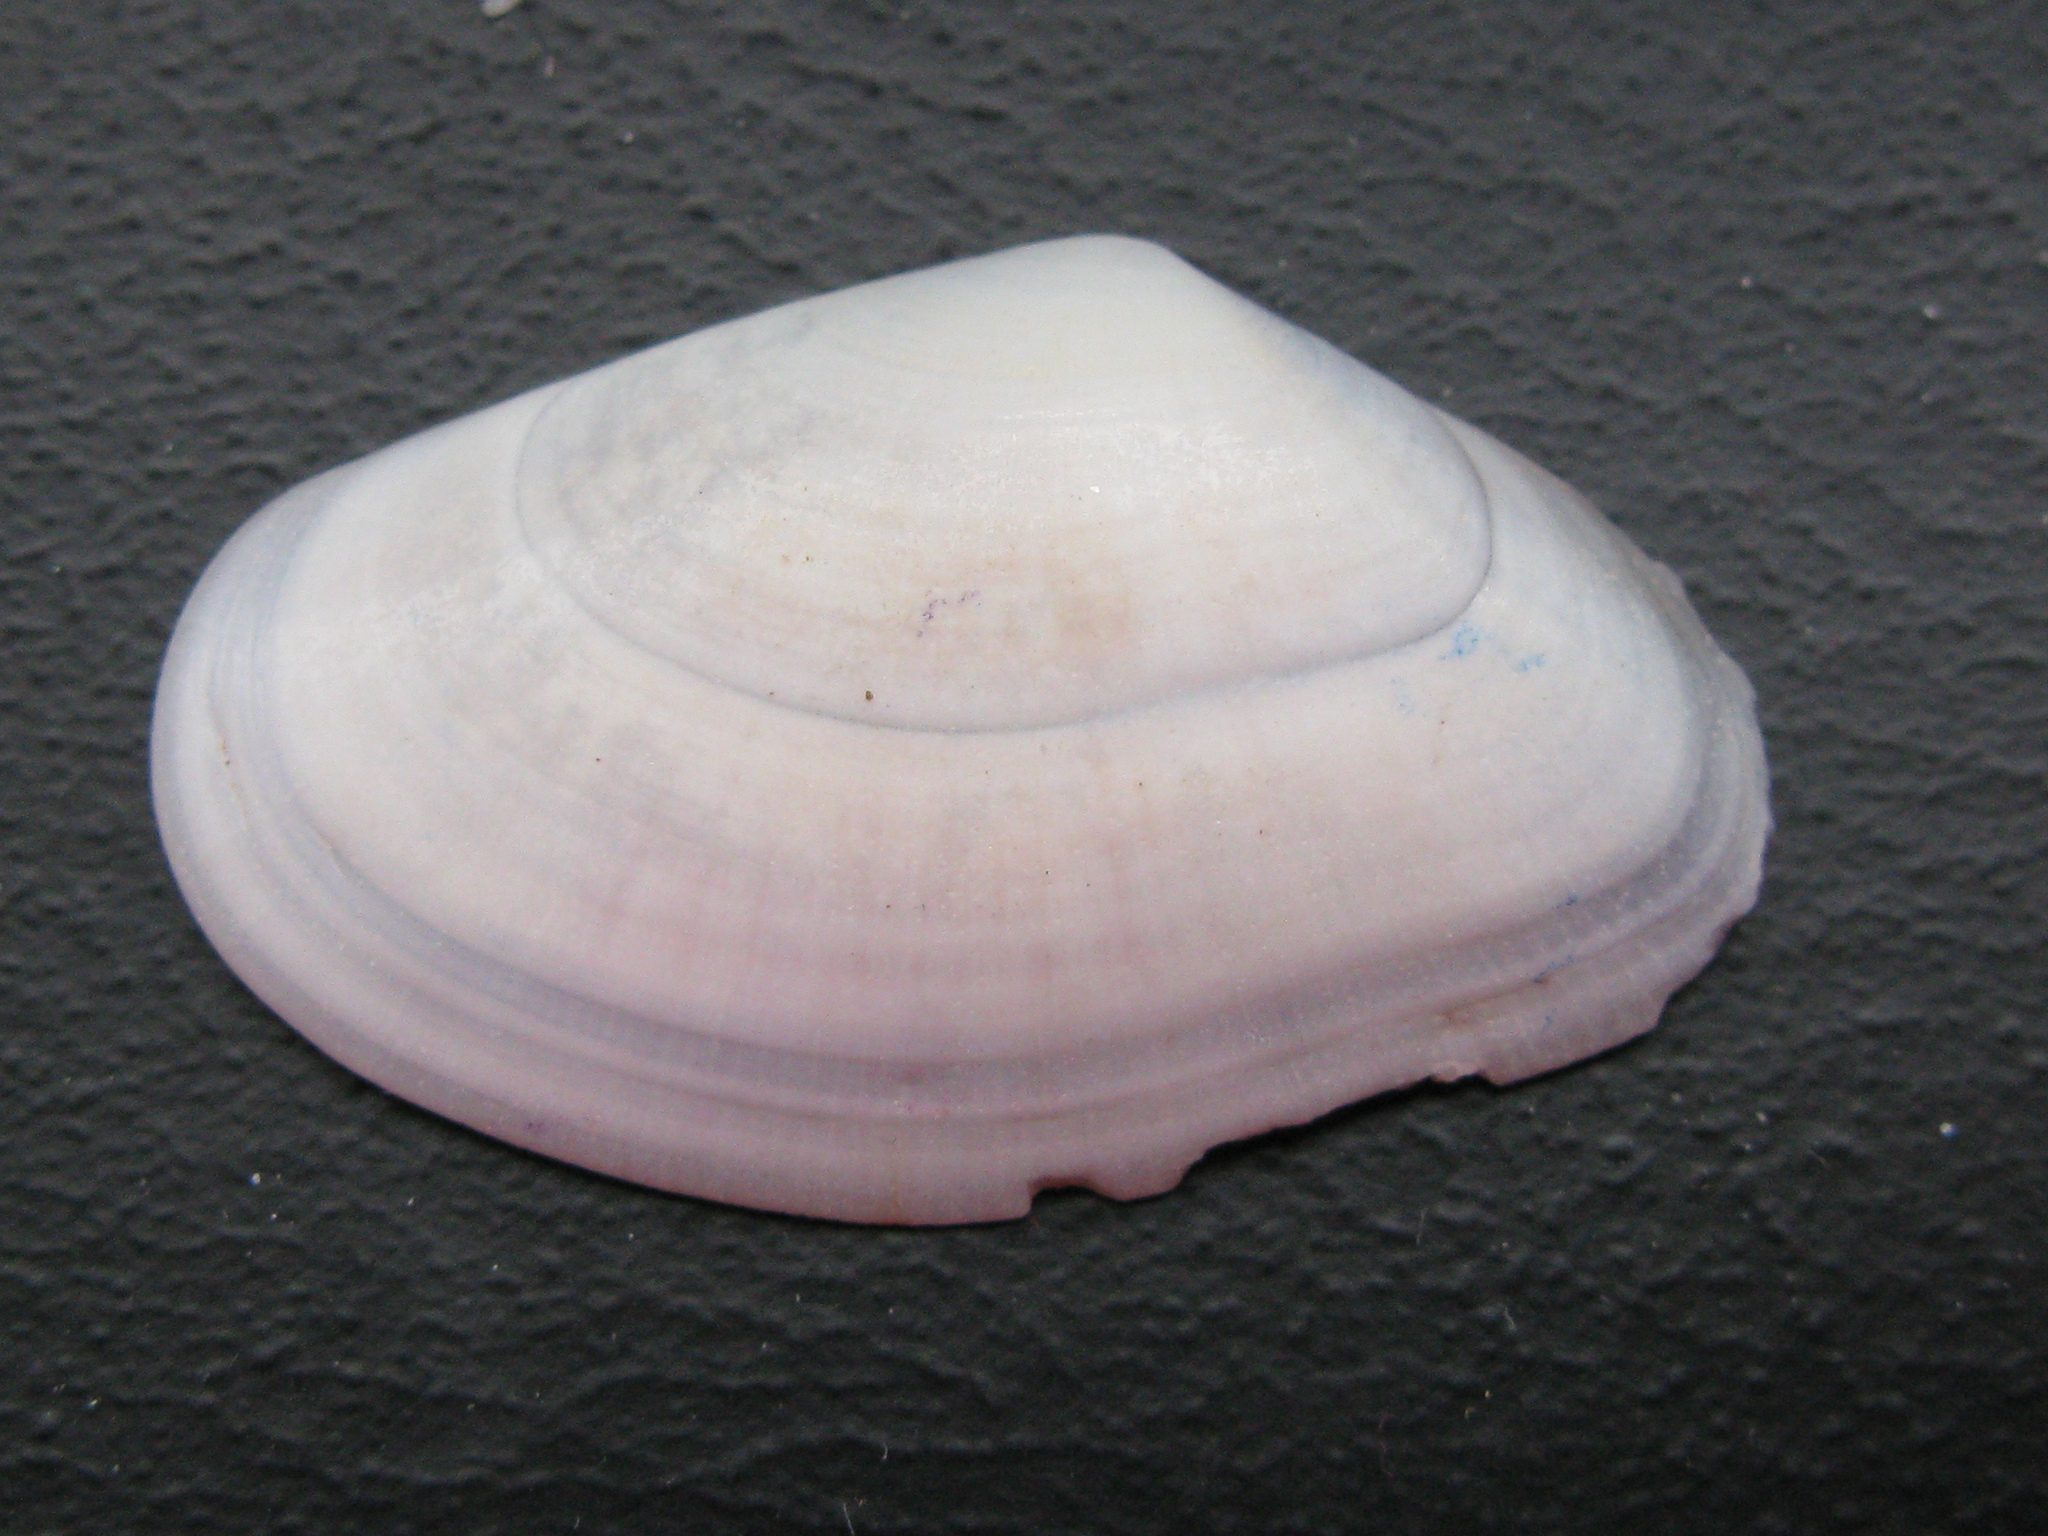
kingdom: Animalia
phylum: Mollusca
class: Bivalvia
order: Cardiida
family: Donacidae
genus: Donax
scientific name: Donax trunculus
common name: Truncate donax
